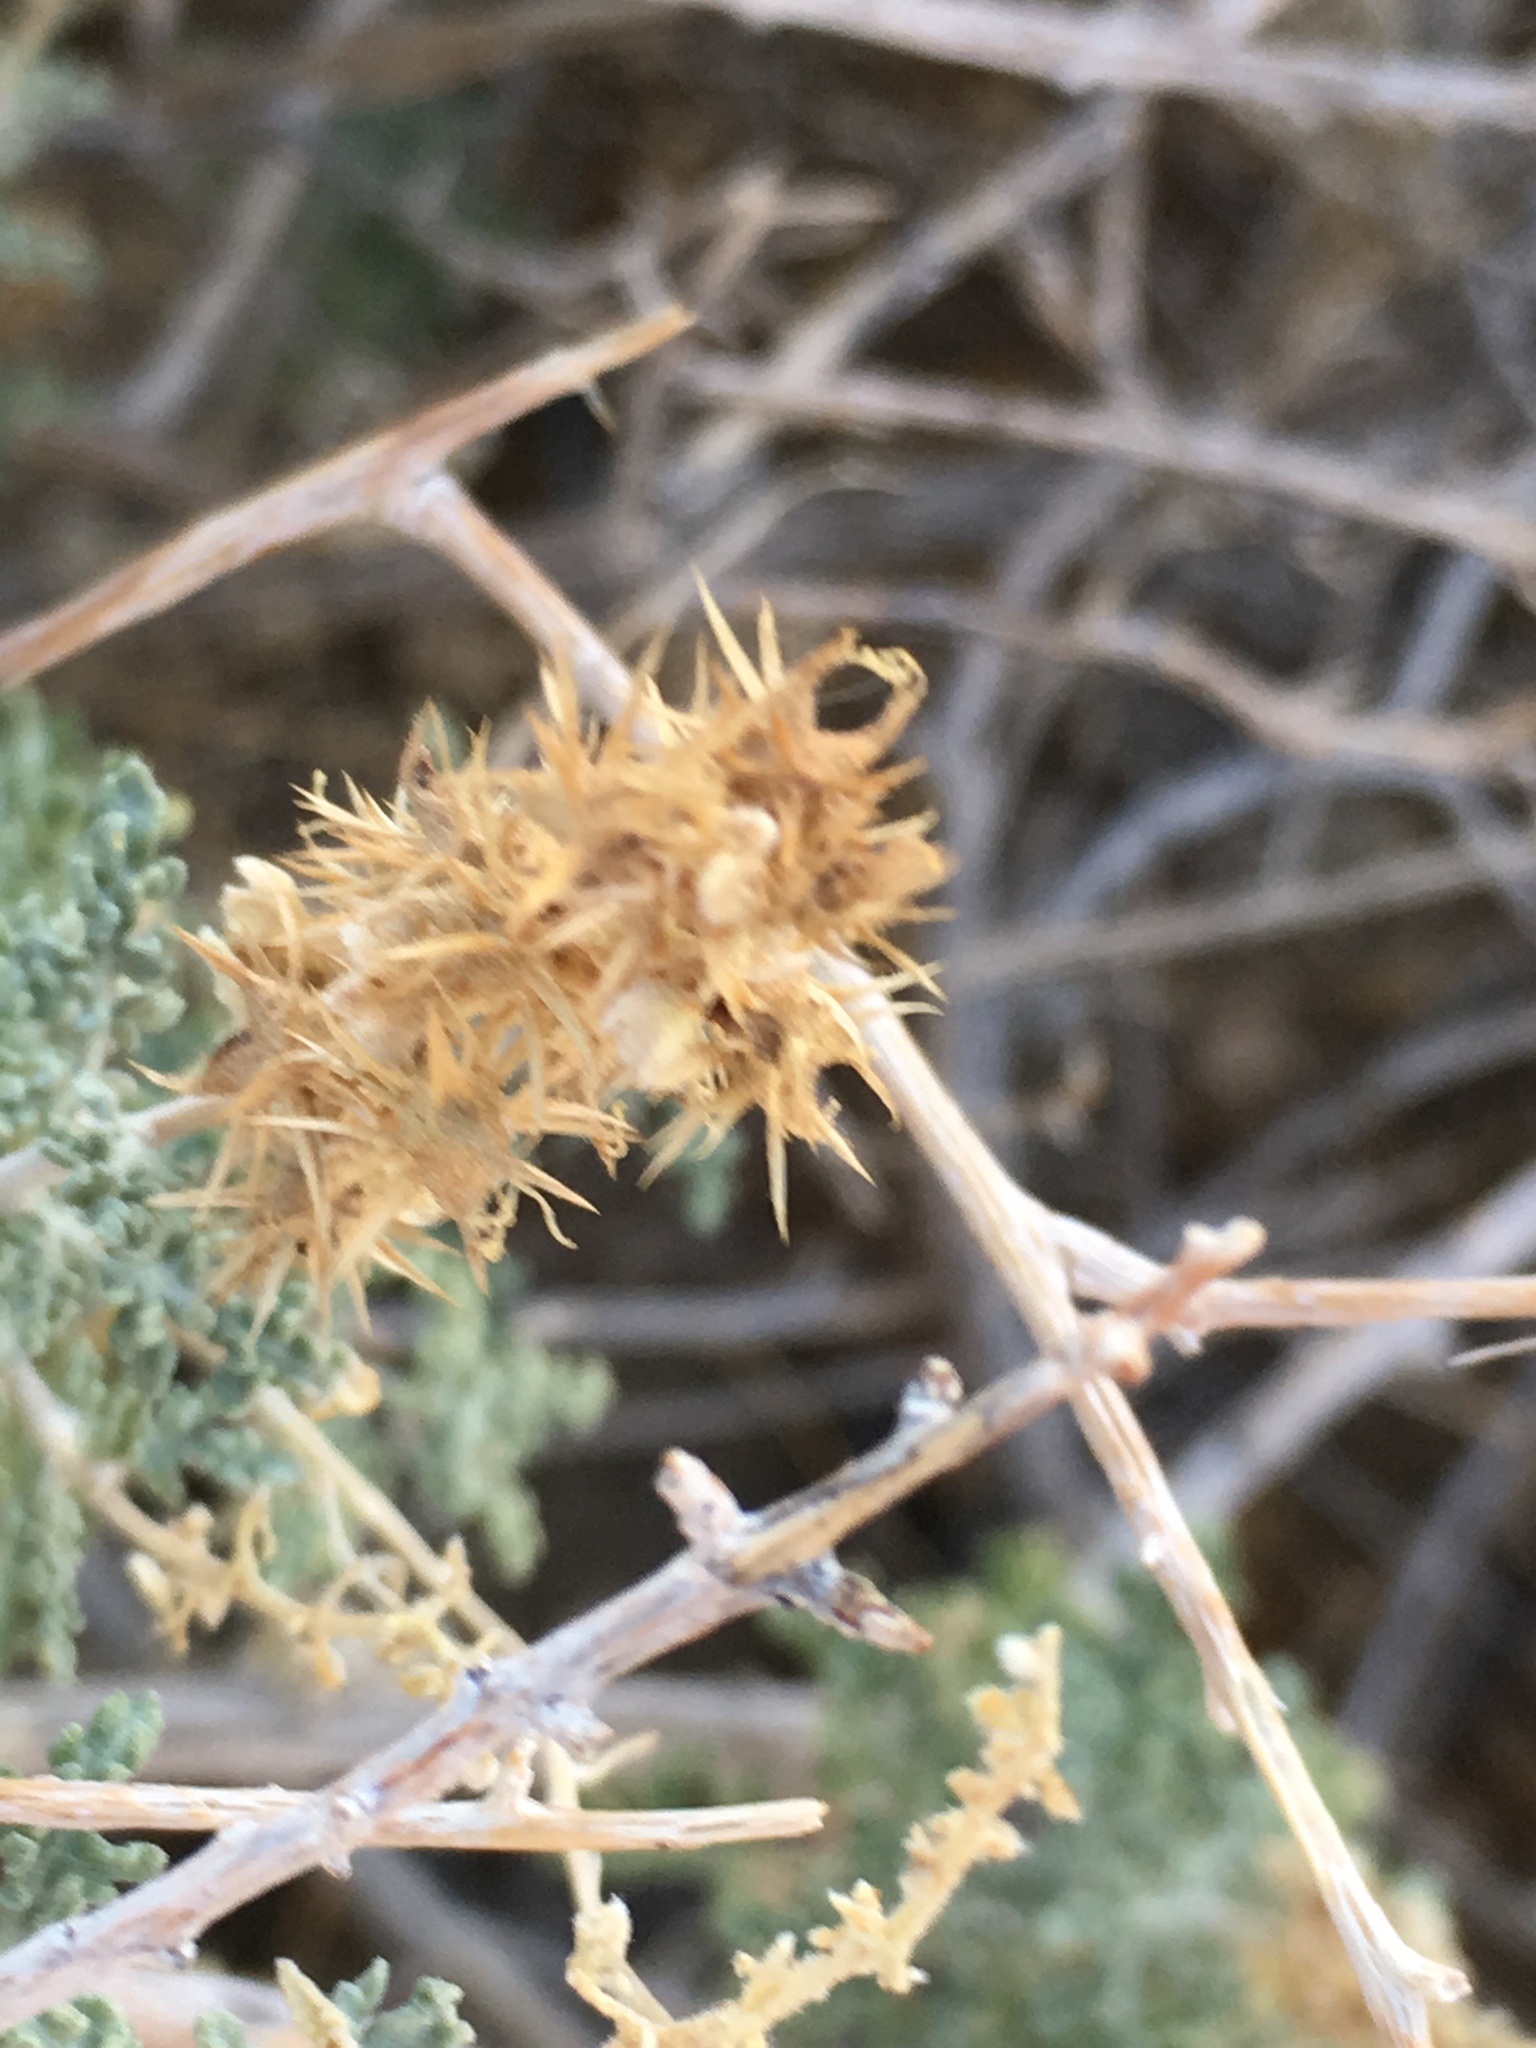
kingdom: Plantae
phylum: Tracheophyta
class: Magnoliopsida
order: Asterales
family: Asteraceae
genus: Ambrosia
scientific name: Ambrosia dumosa
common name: Bur-sage
